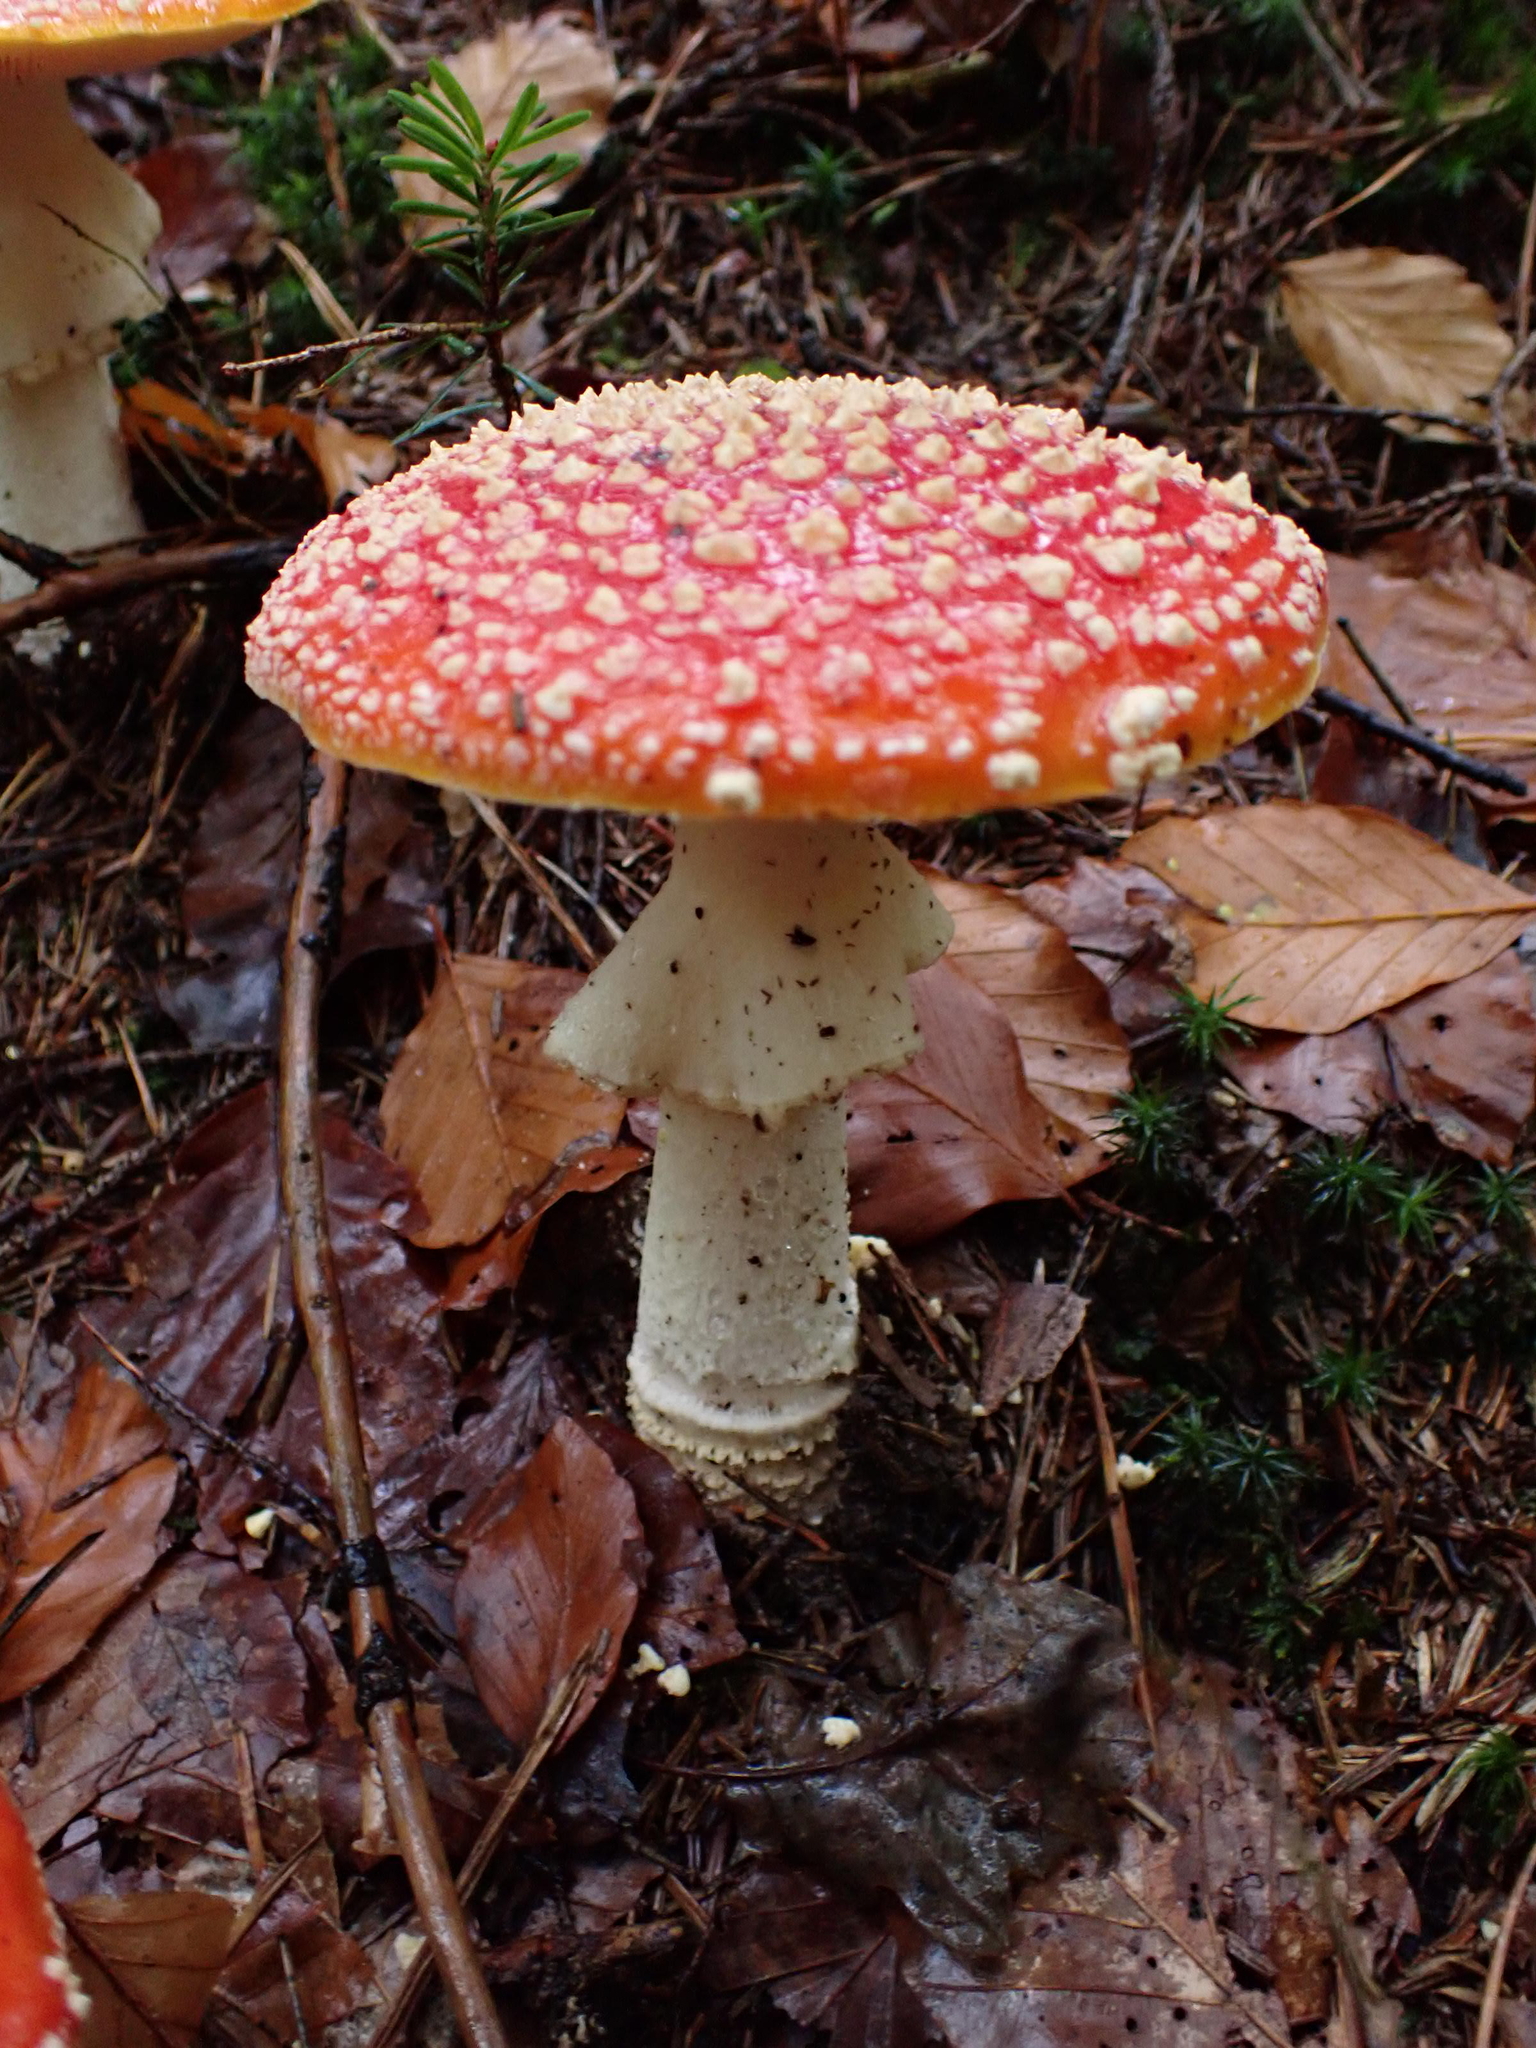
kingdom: Fungi
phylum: Basidiomycota
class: Agaricomycetes
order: Agaricales
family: Amanitaceae
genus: Amanita
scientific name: Amanita muscaria
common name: Fly agaric
